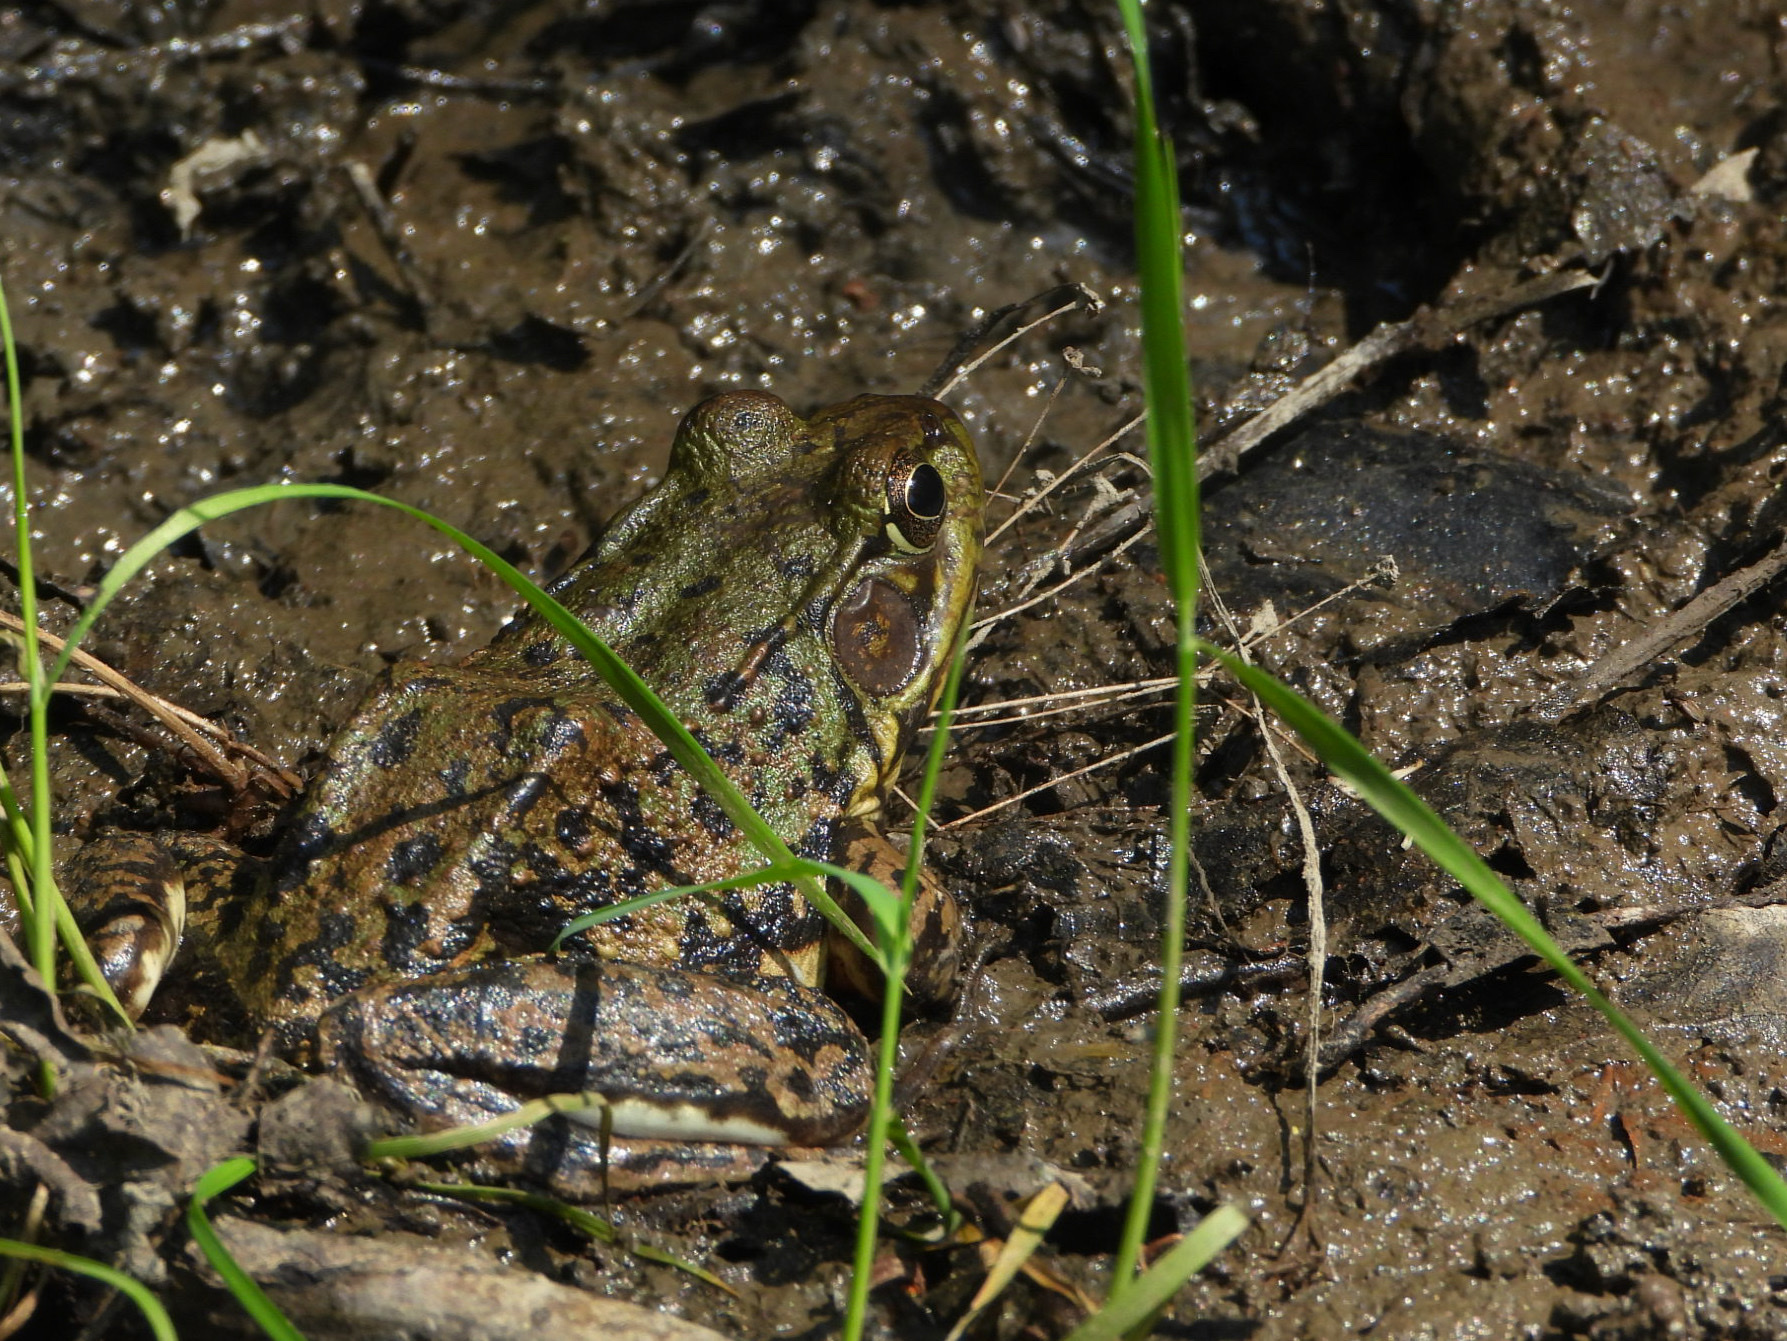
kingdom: Animalia
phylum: Chordata
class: Amphibia
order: Anura
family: Ranidae
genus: Lithobates
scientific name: Lithobates clamitans
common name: Green frog
